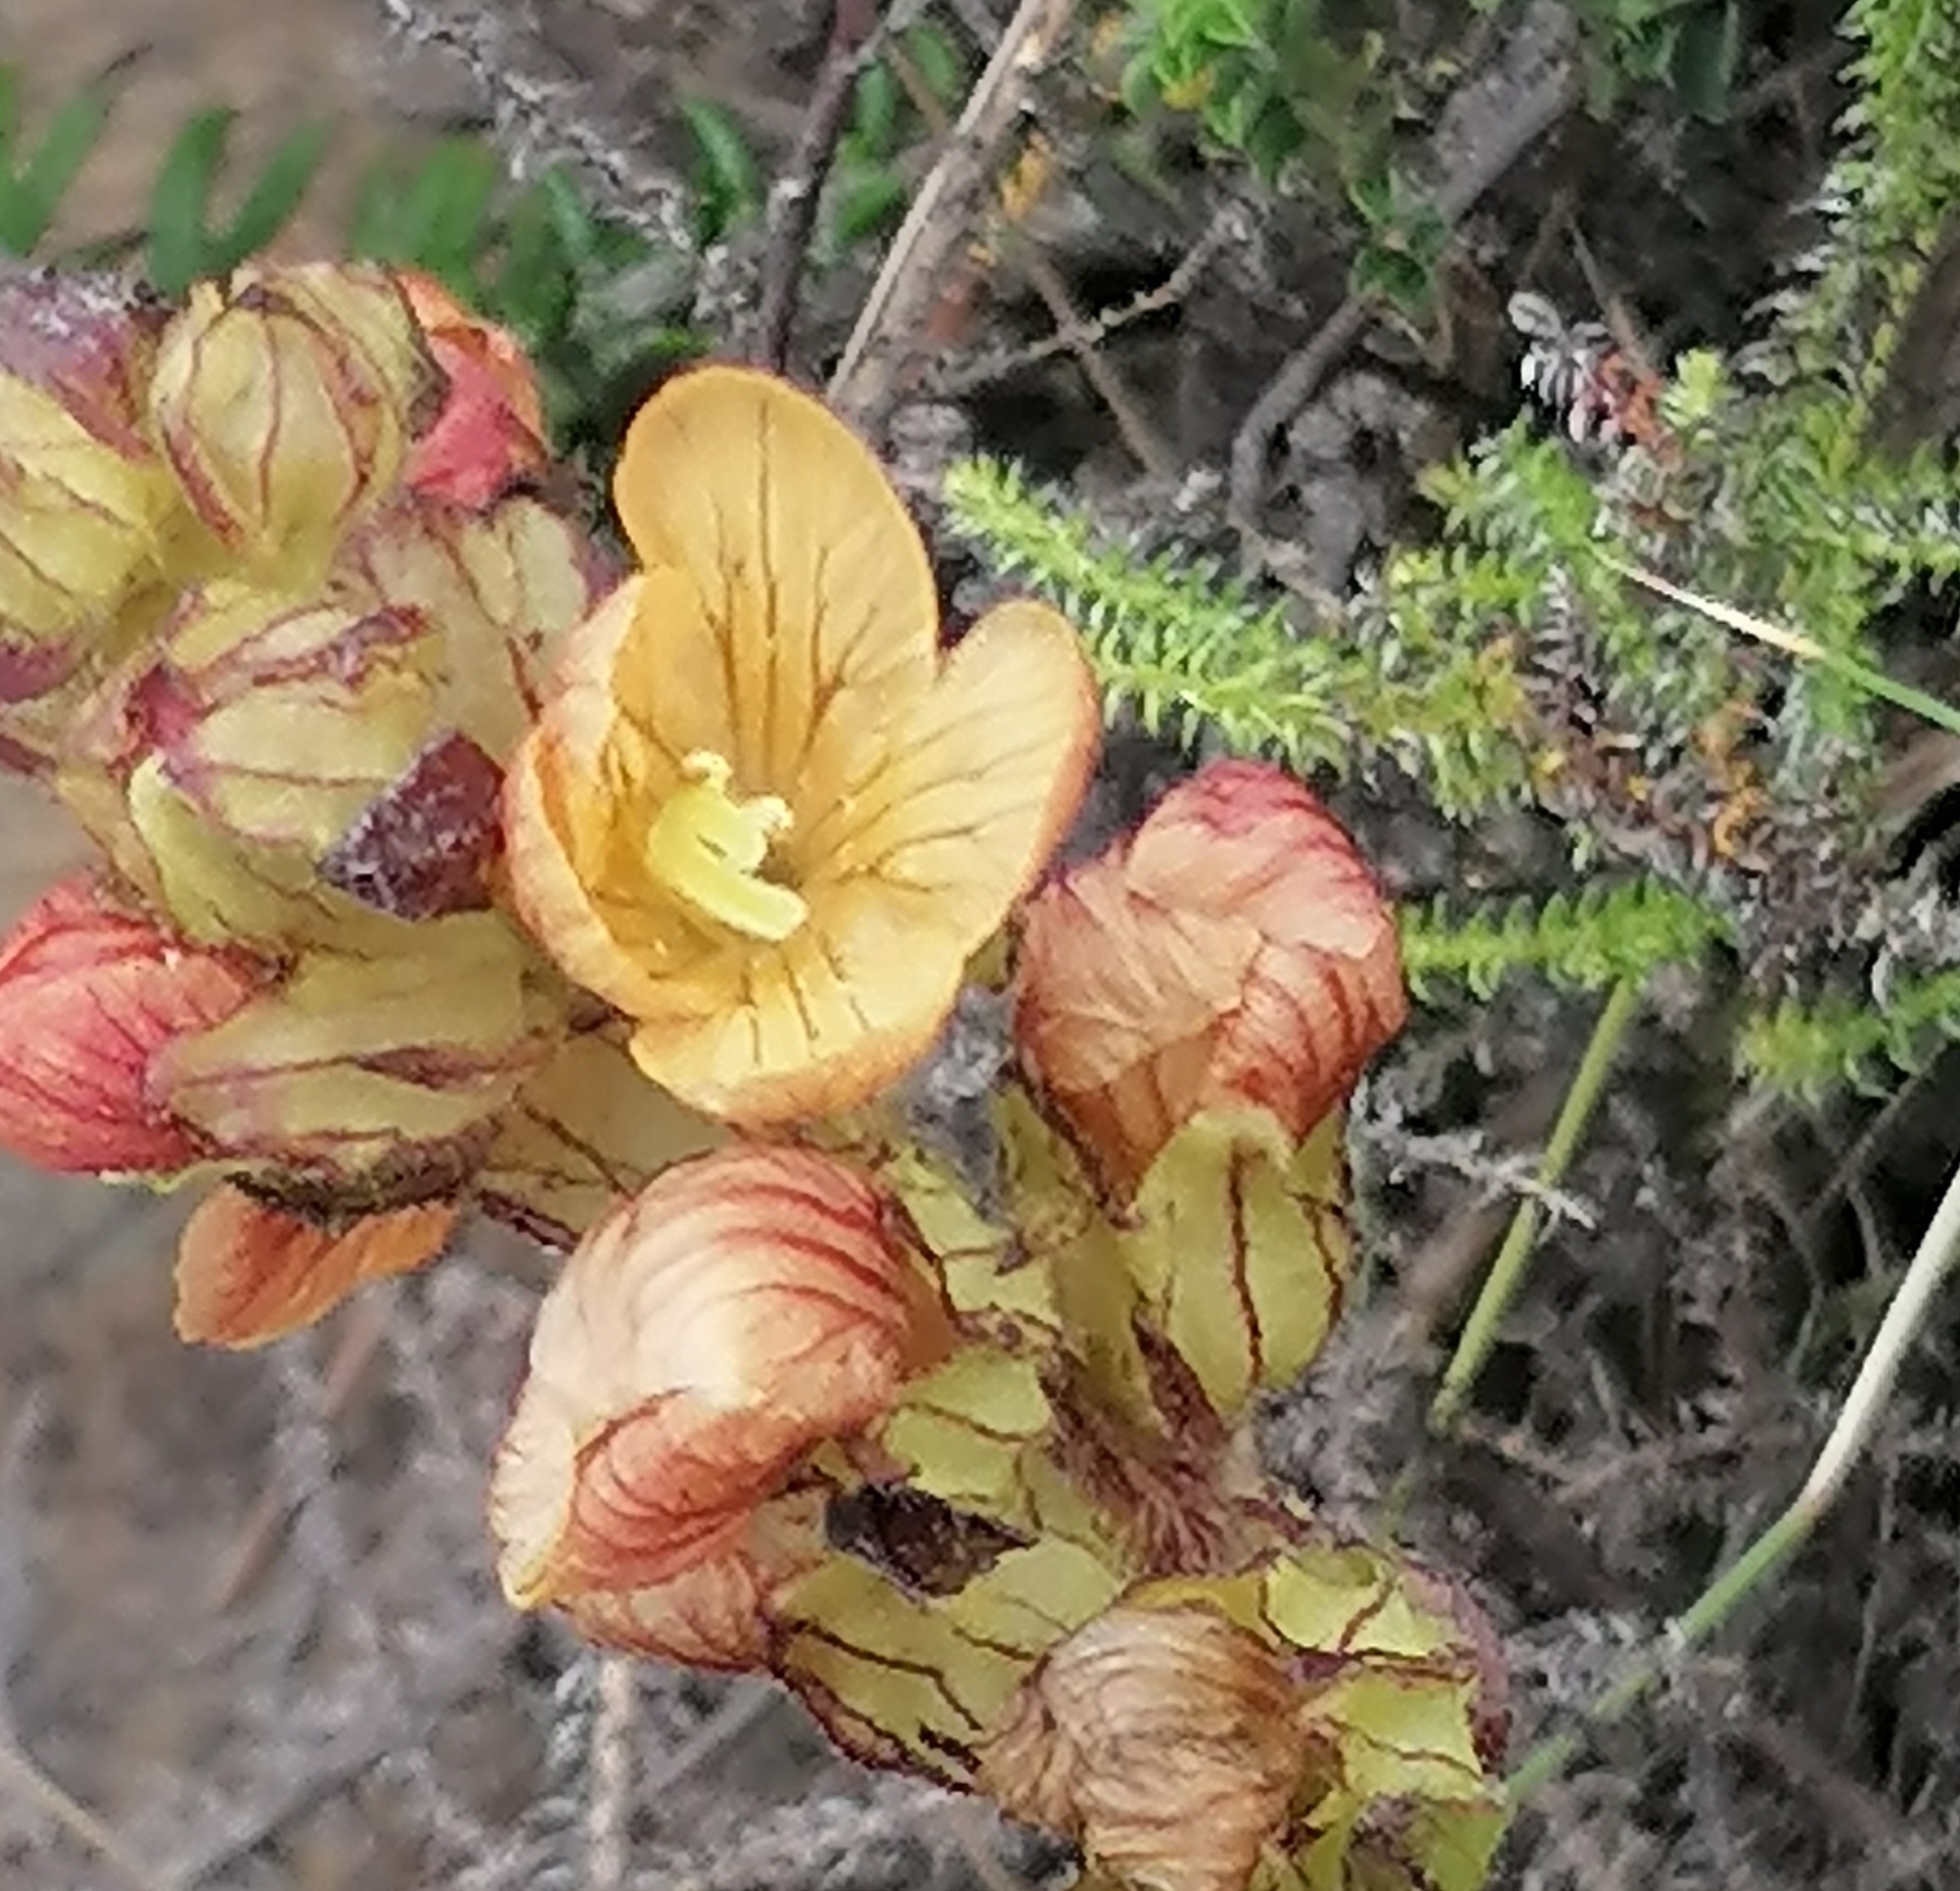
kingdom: Plantae
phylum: Tracheophyta
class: Magnoliopsida
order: Lamiales
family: Orobanchaceae
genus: Alectra
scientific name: Alectra lurida
